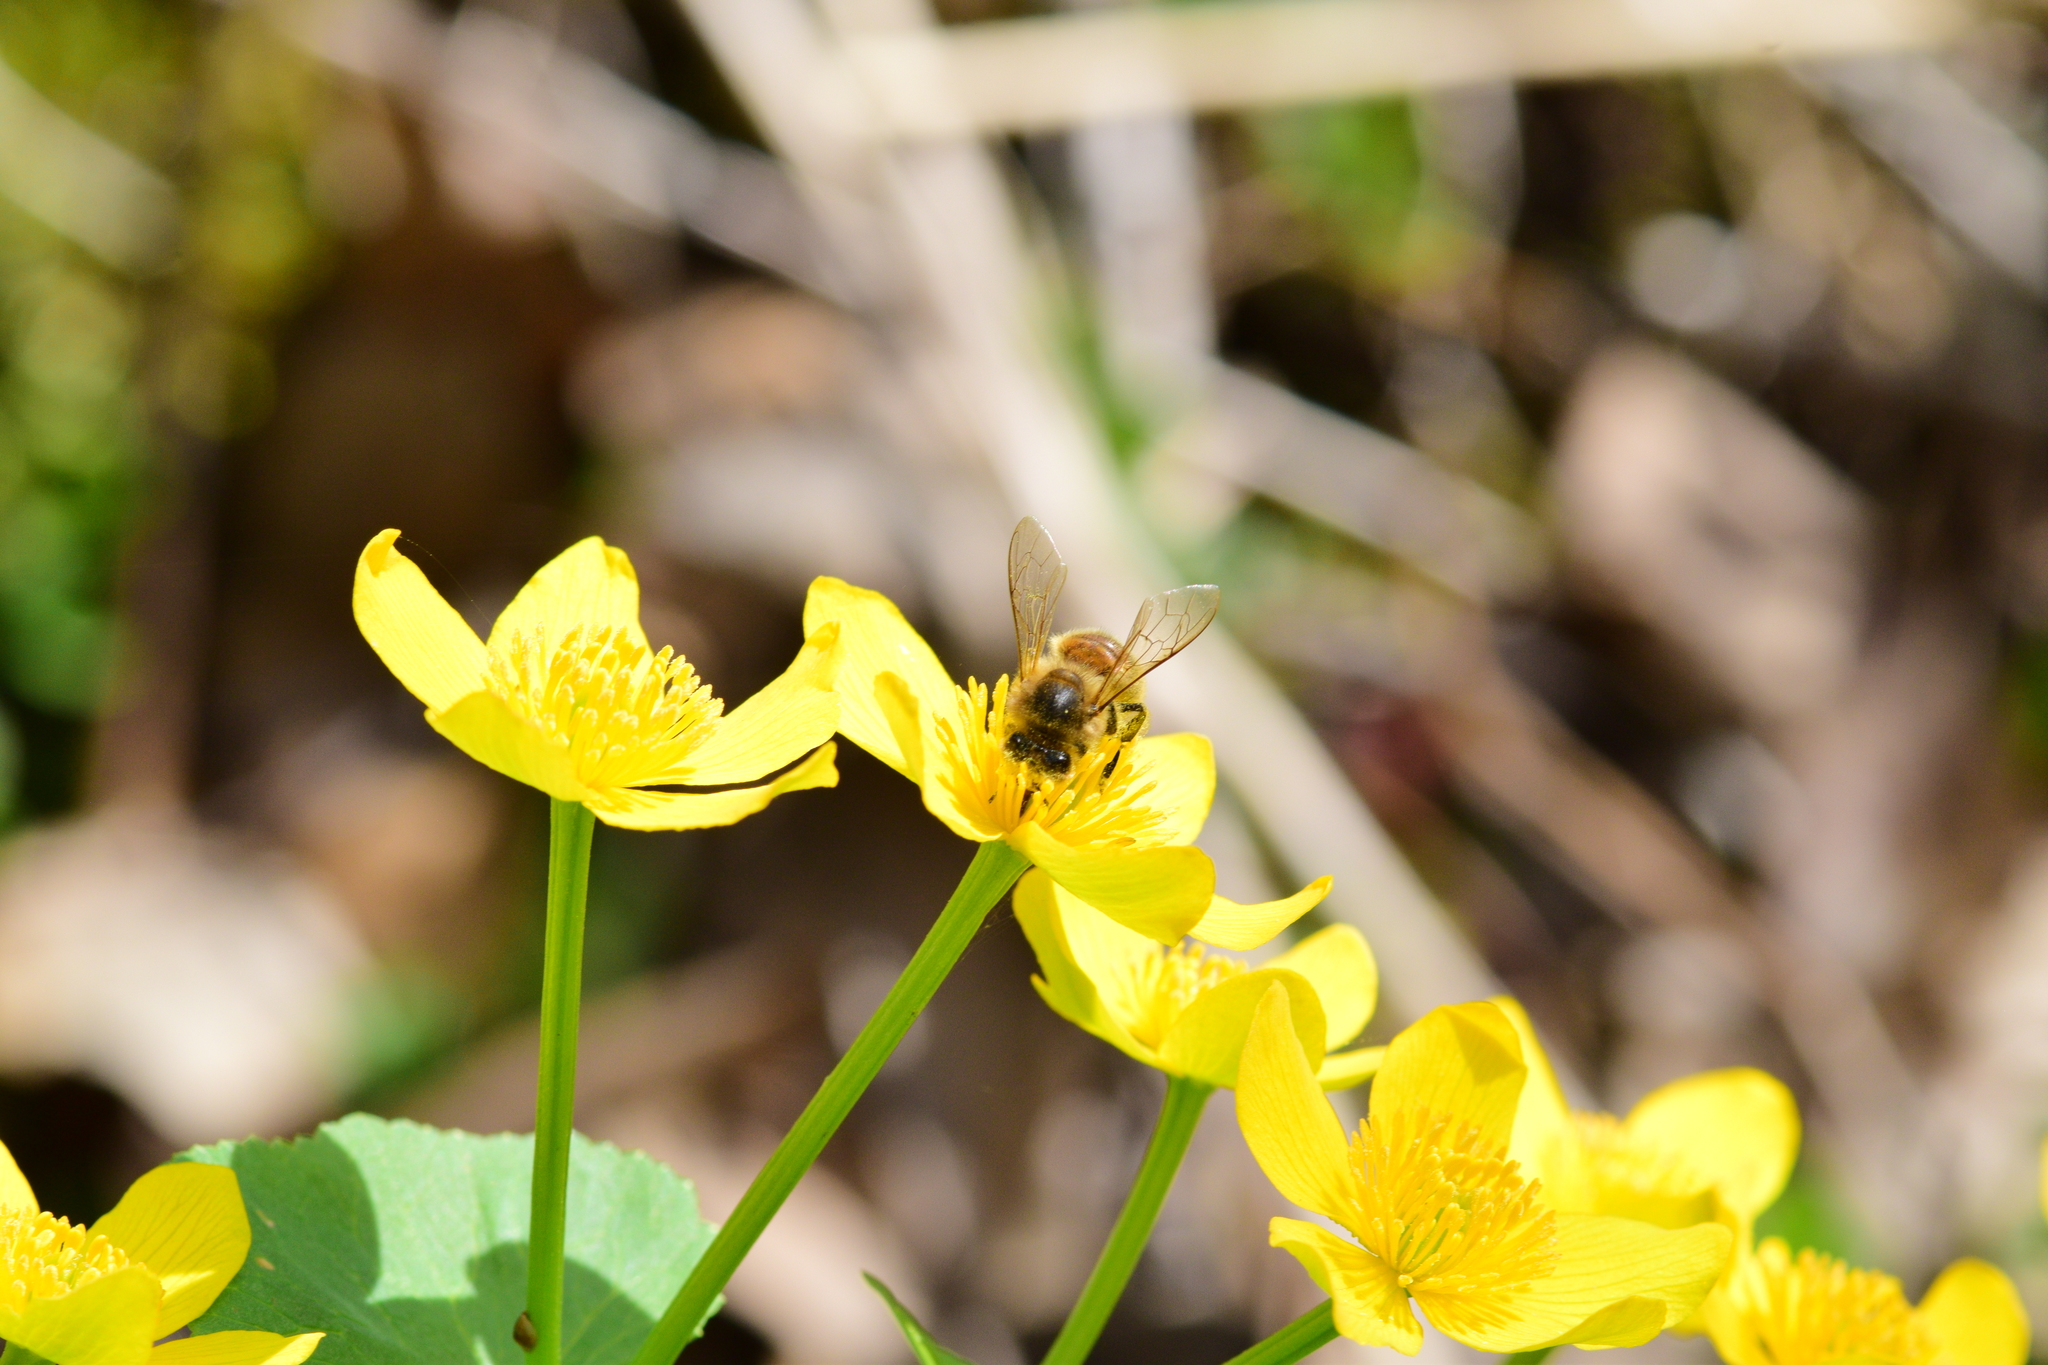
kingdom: Animalia
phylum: Arthropoda
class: Insecta
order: Hymenoptera
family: Apidae
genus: Apis
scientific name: Apis mellifera
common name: Honey bee
